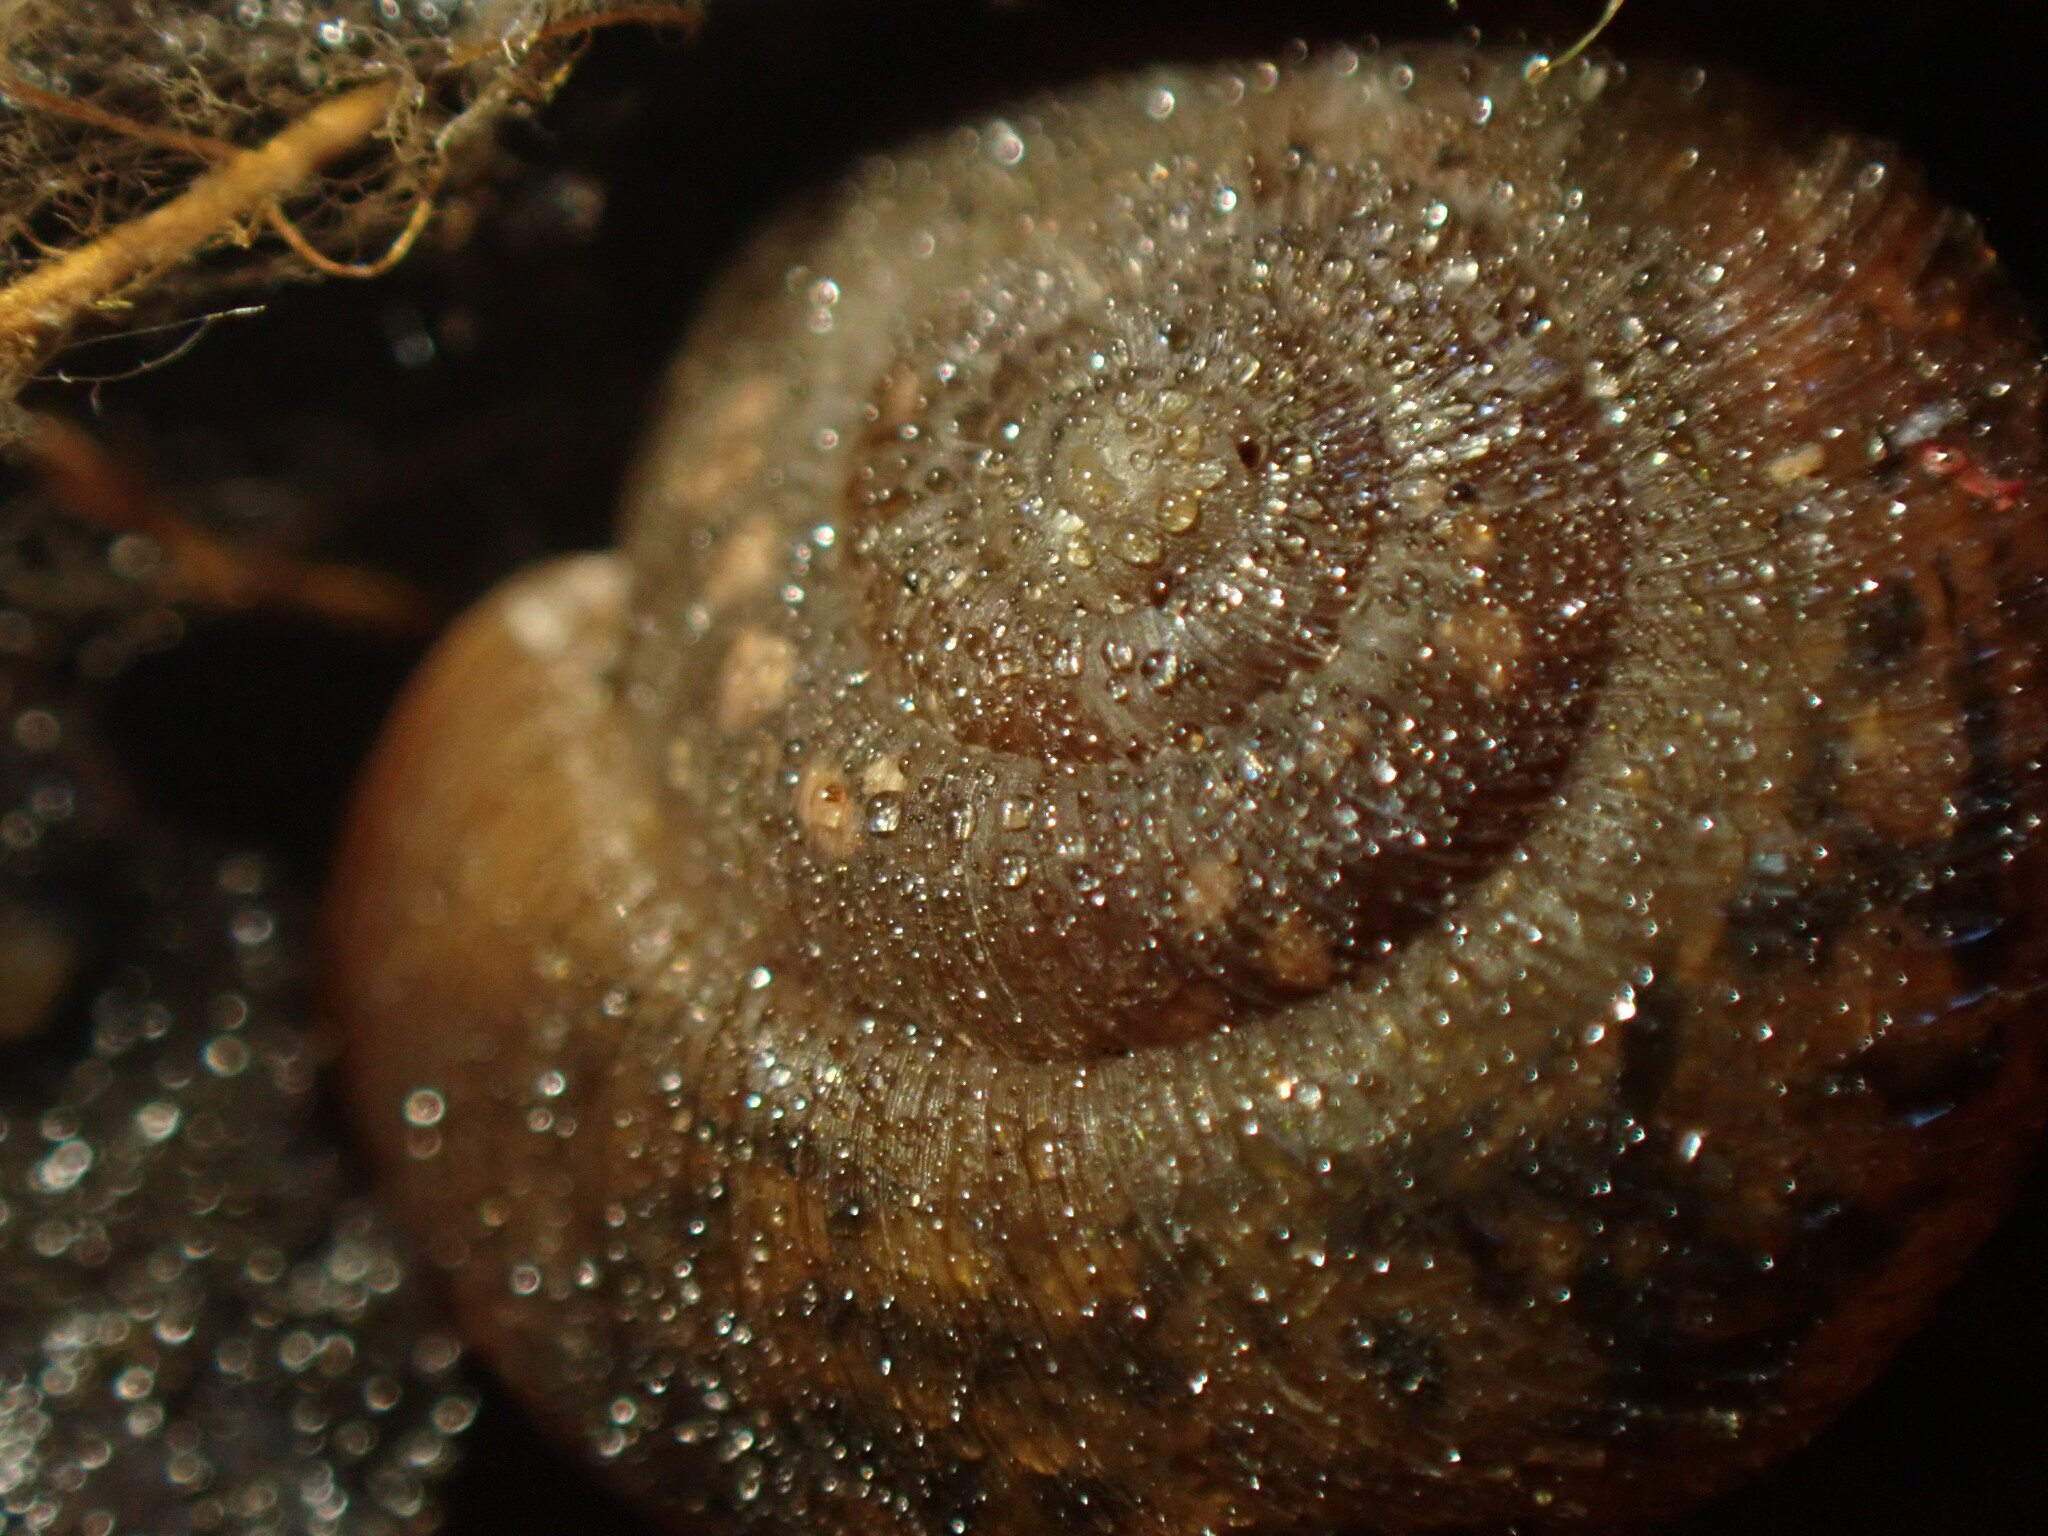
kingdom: Animalia
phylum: Mollusca
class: Gastropoda
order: Stylommatophora
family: Charopidae
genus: Stenacapha
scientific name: Stenacapha hamiltoni
